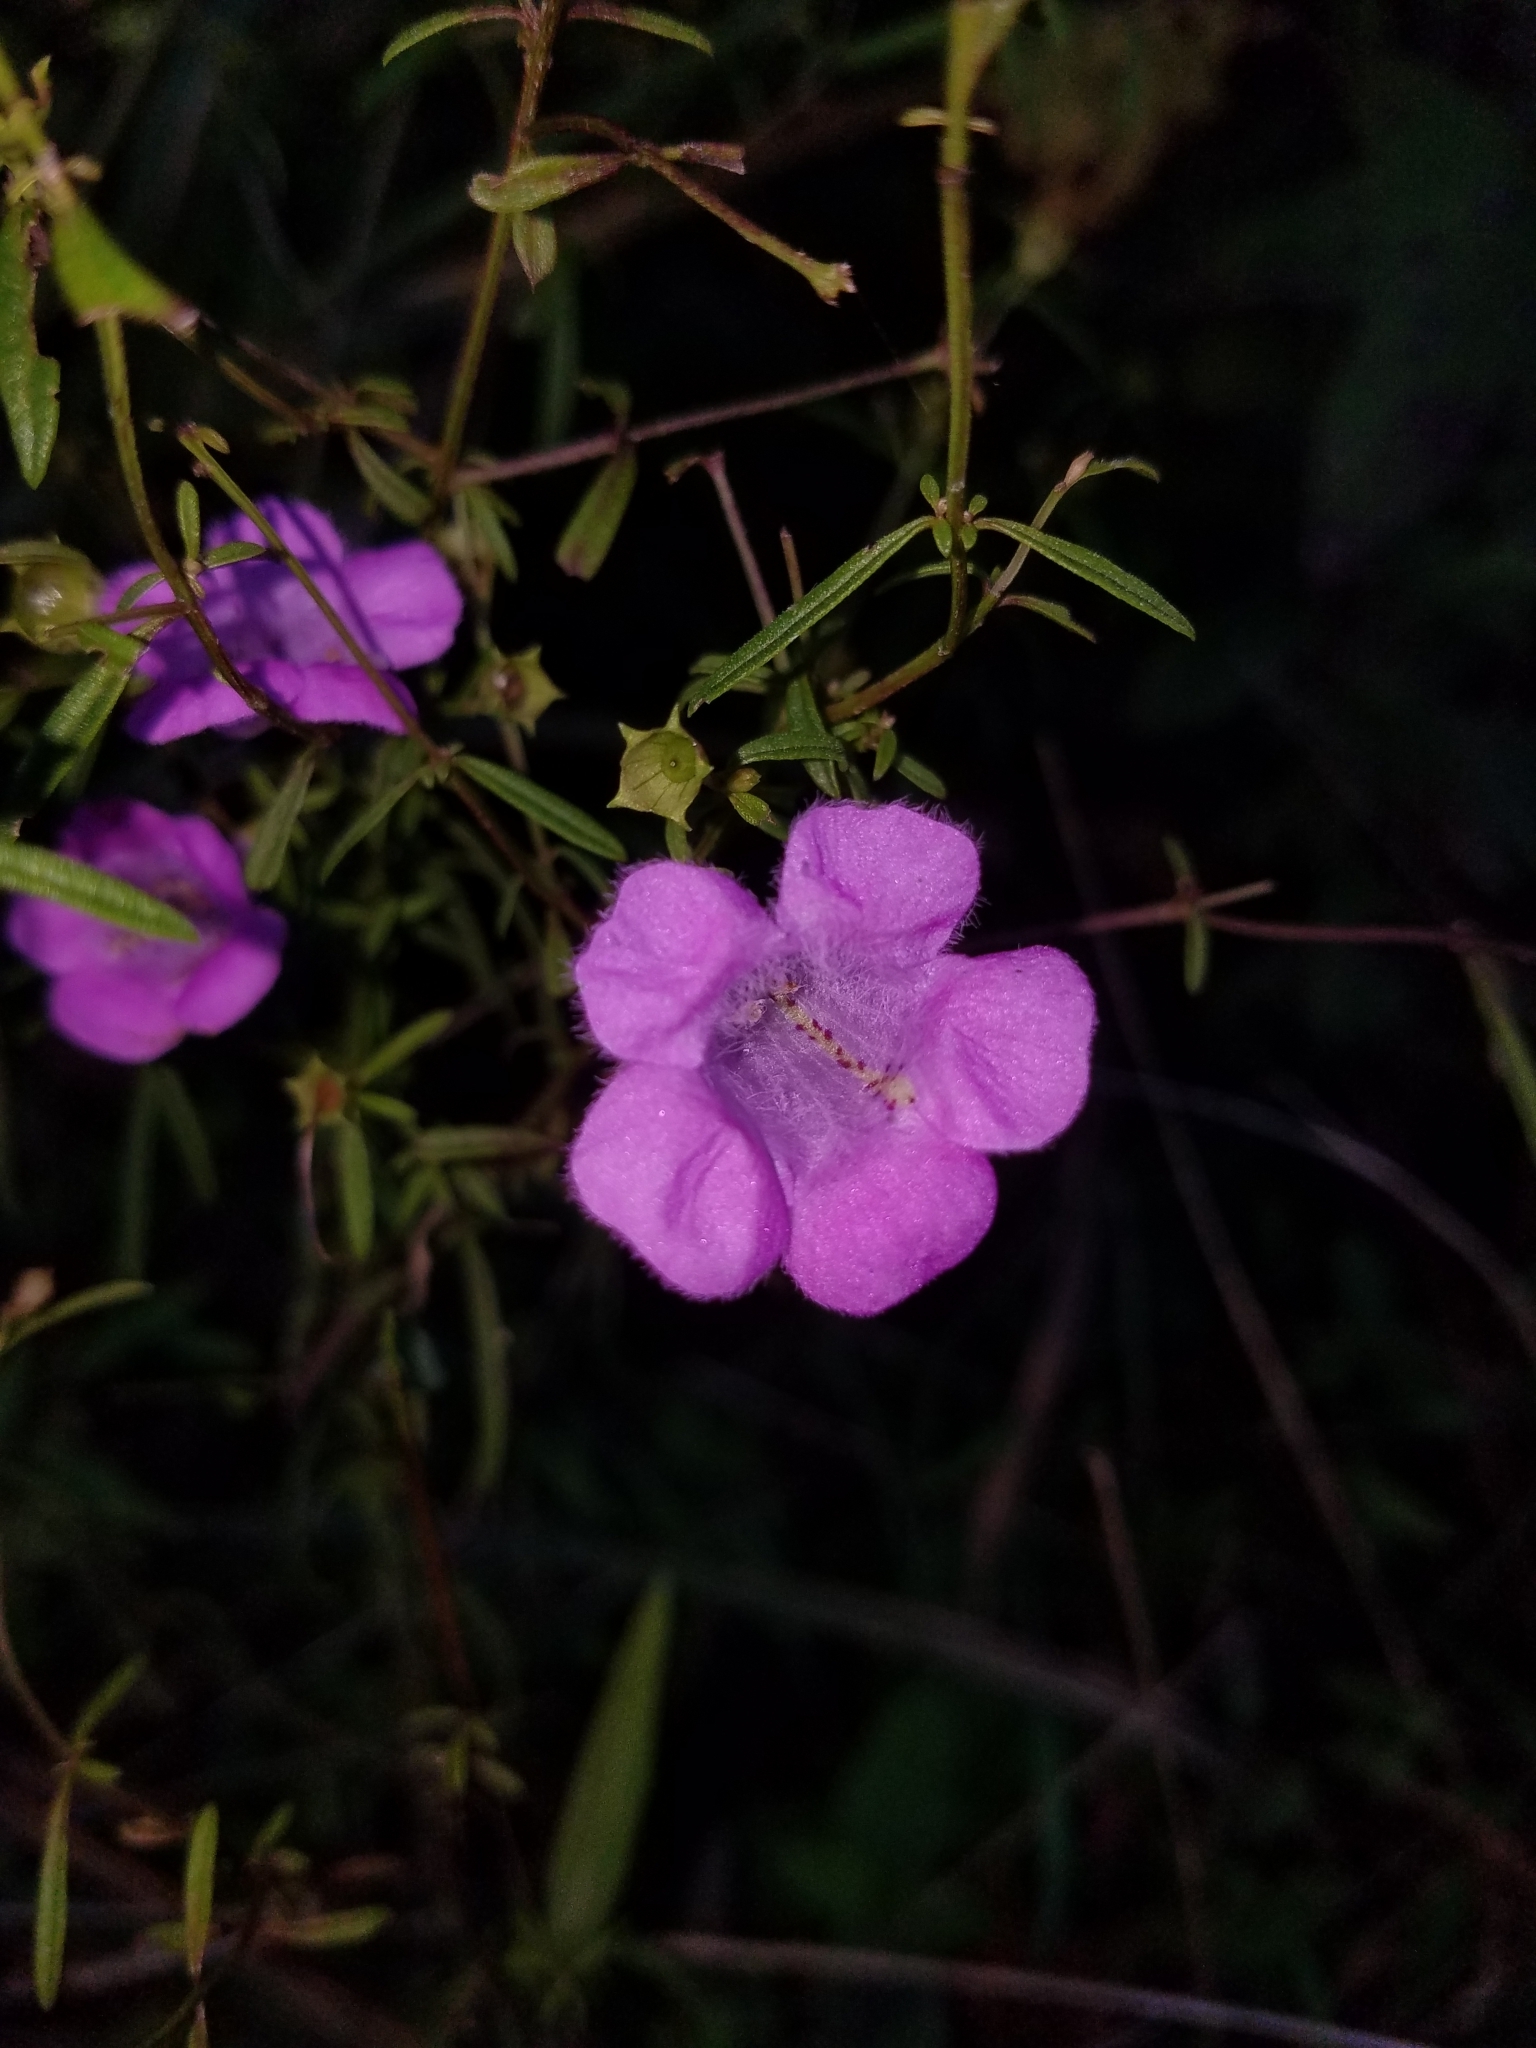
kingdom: Plantae
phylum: Tracheophyta
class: Magnoliopsida
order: Lamiales
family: Orobanchaceae
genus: Agalinis
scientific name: Agalinis purpurea
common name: Purple false foxglove
